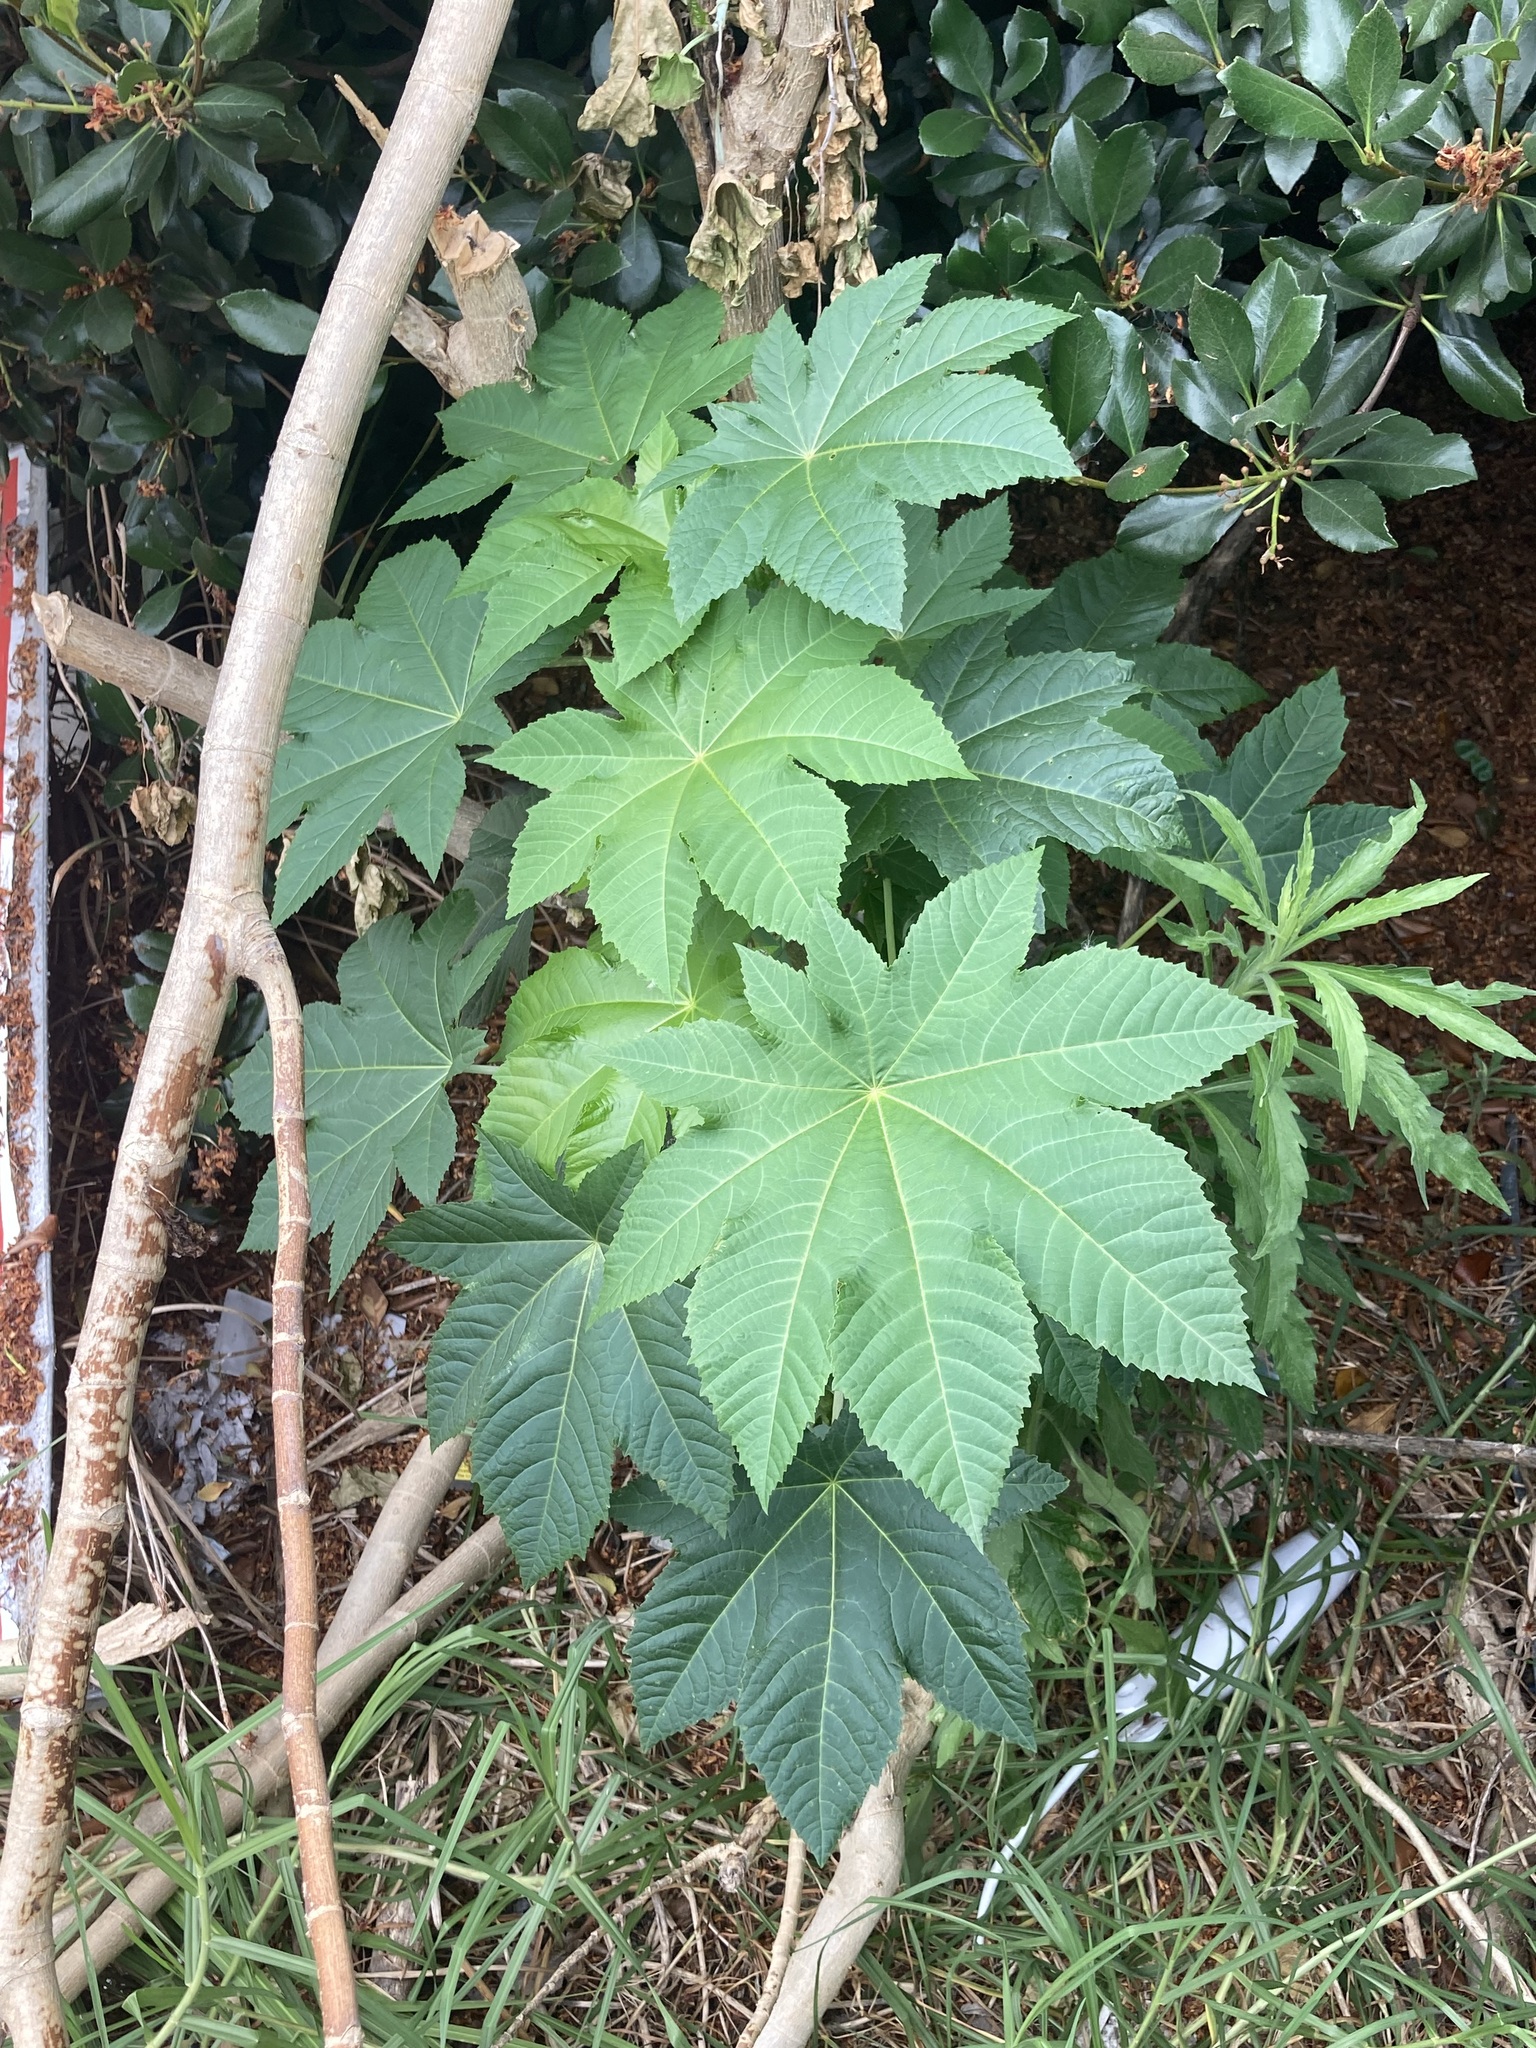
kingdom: Plantae
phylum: Tracheophyta
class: Magnoliopsida
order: Malpighiales
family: Euphorbiaceae
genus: Ricinus
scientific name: Ricinus communis
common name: Castor-oil-plant
